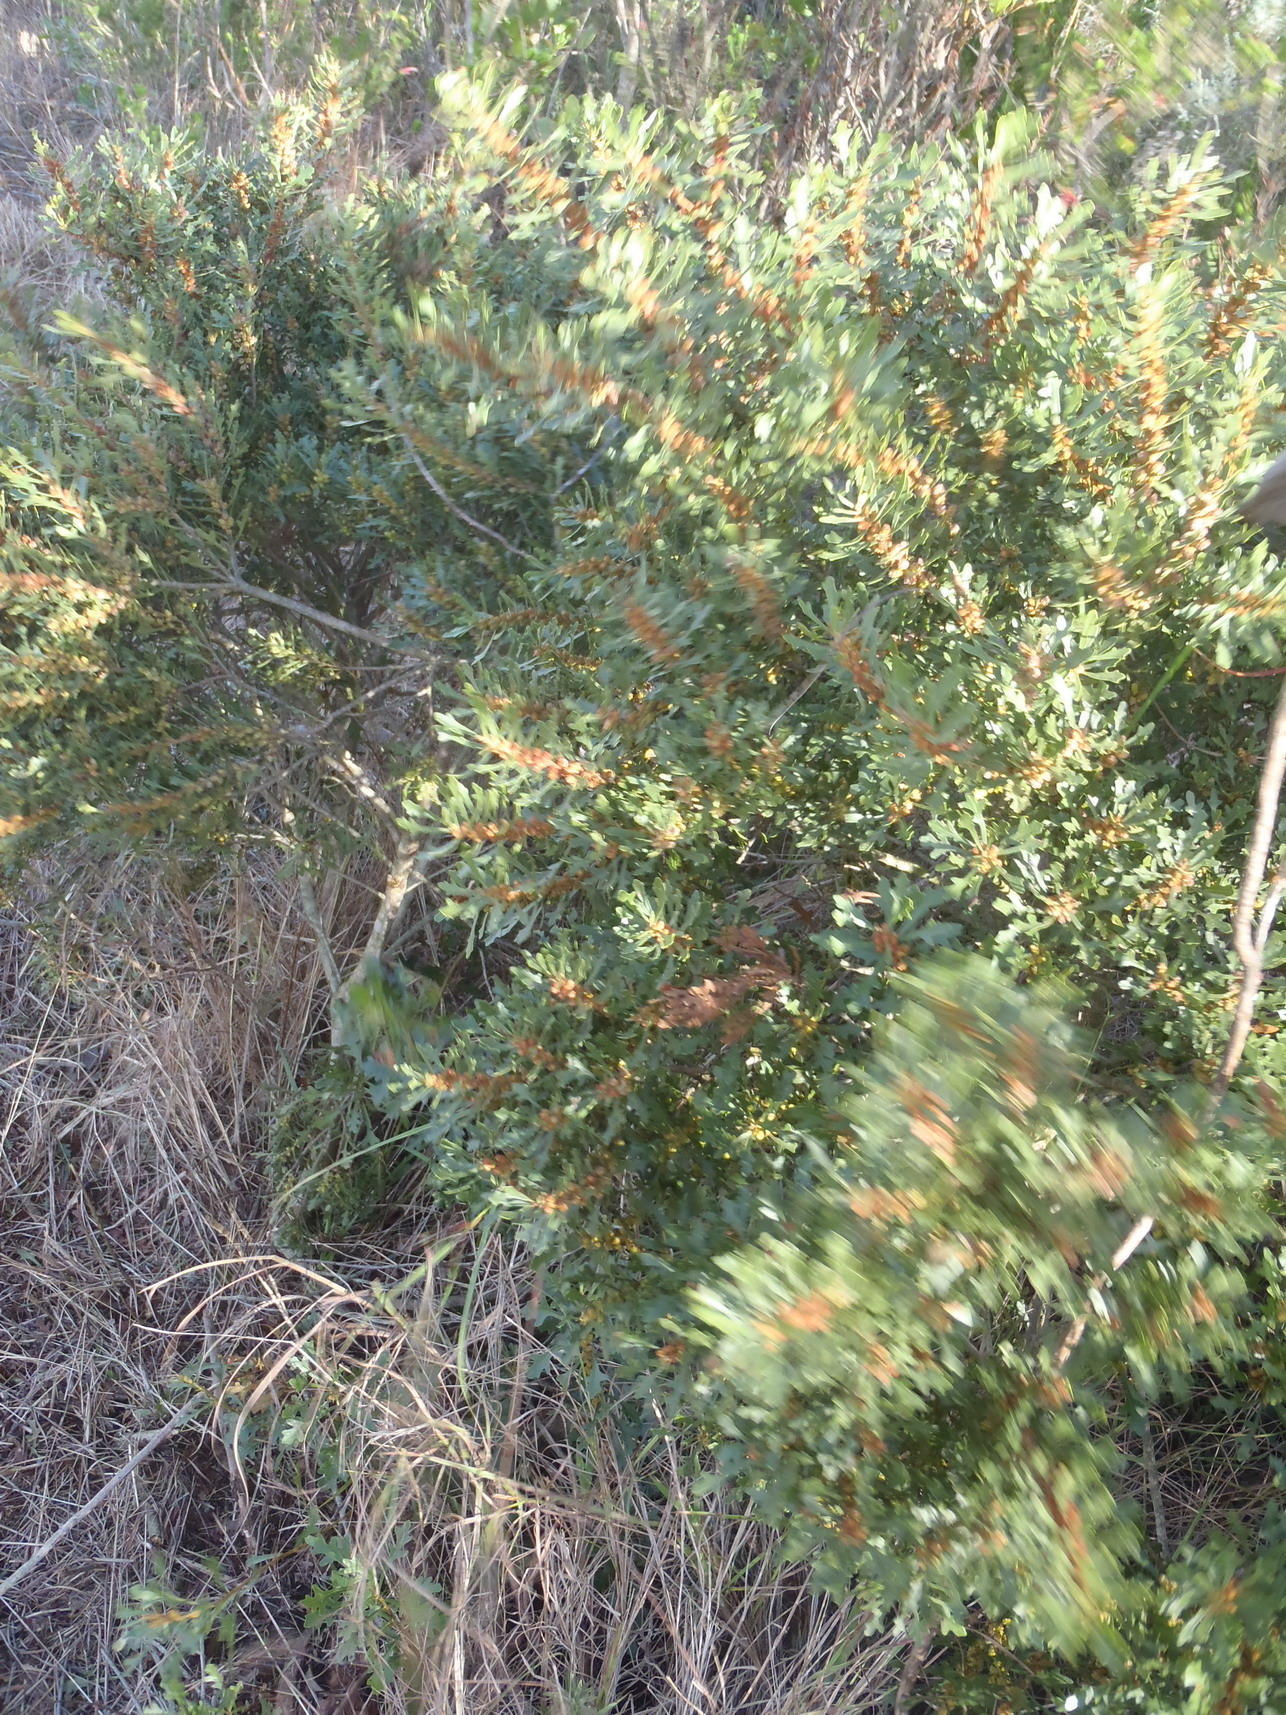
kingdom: Plantae
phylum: Tracheophyta
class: Magnoliopsida
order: Fagales
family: Myricaceae
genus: Morella
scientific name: Morella quercifolia
